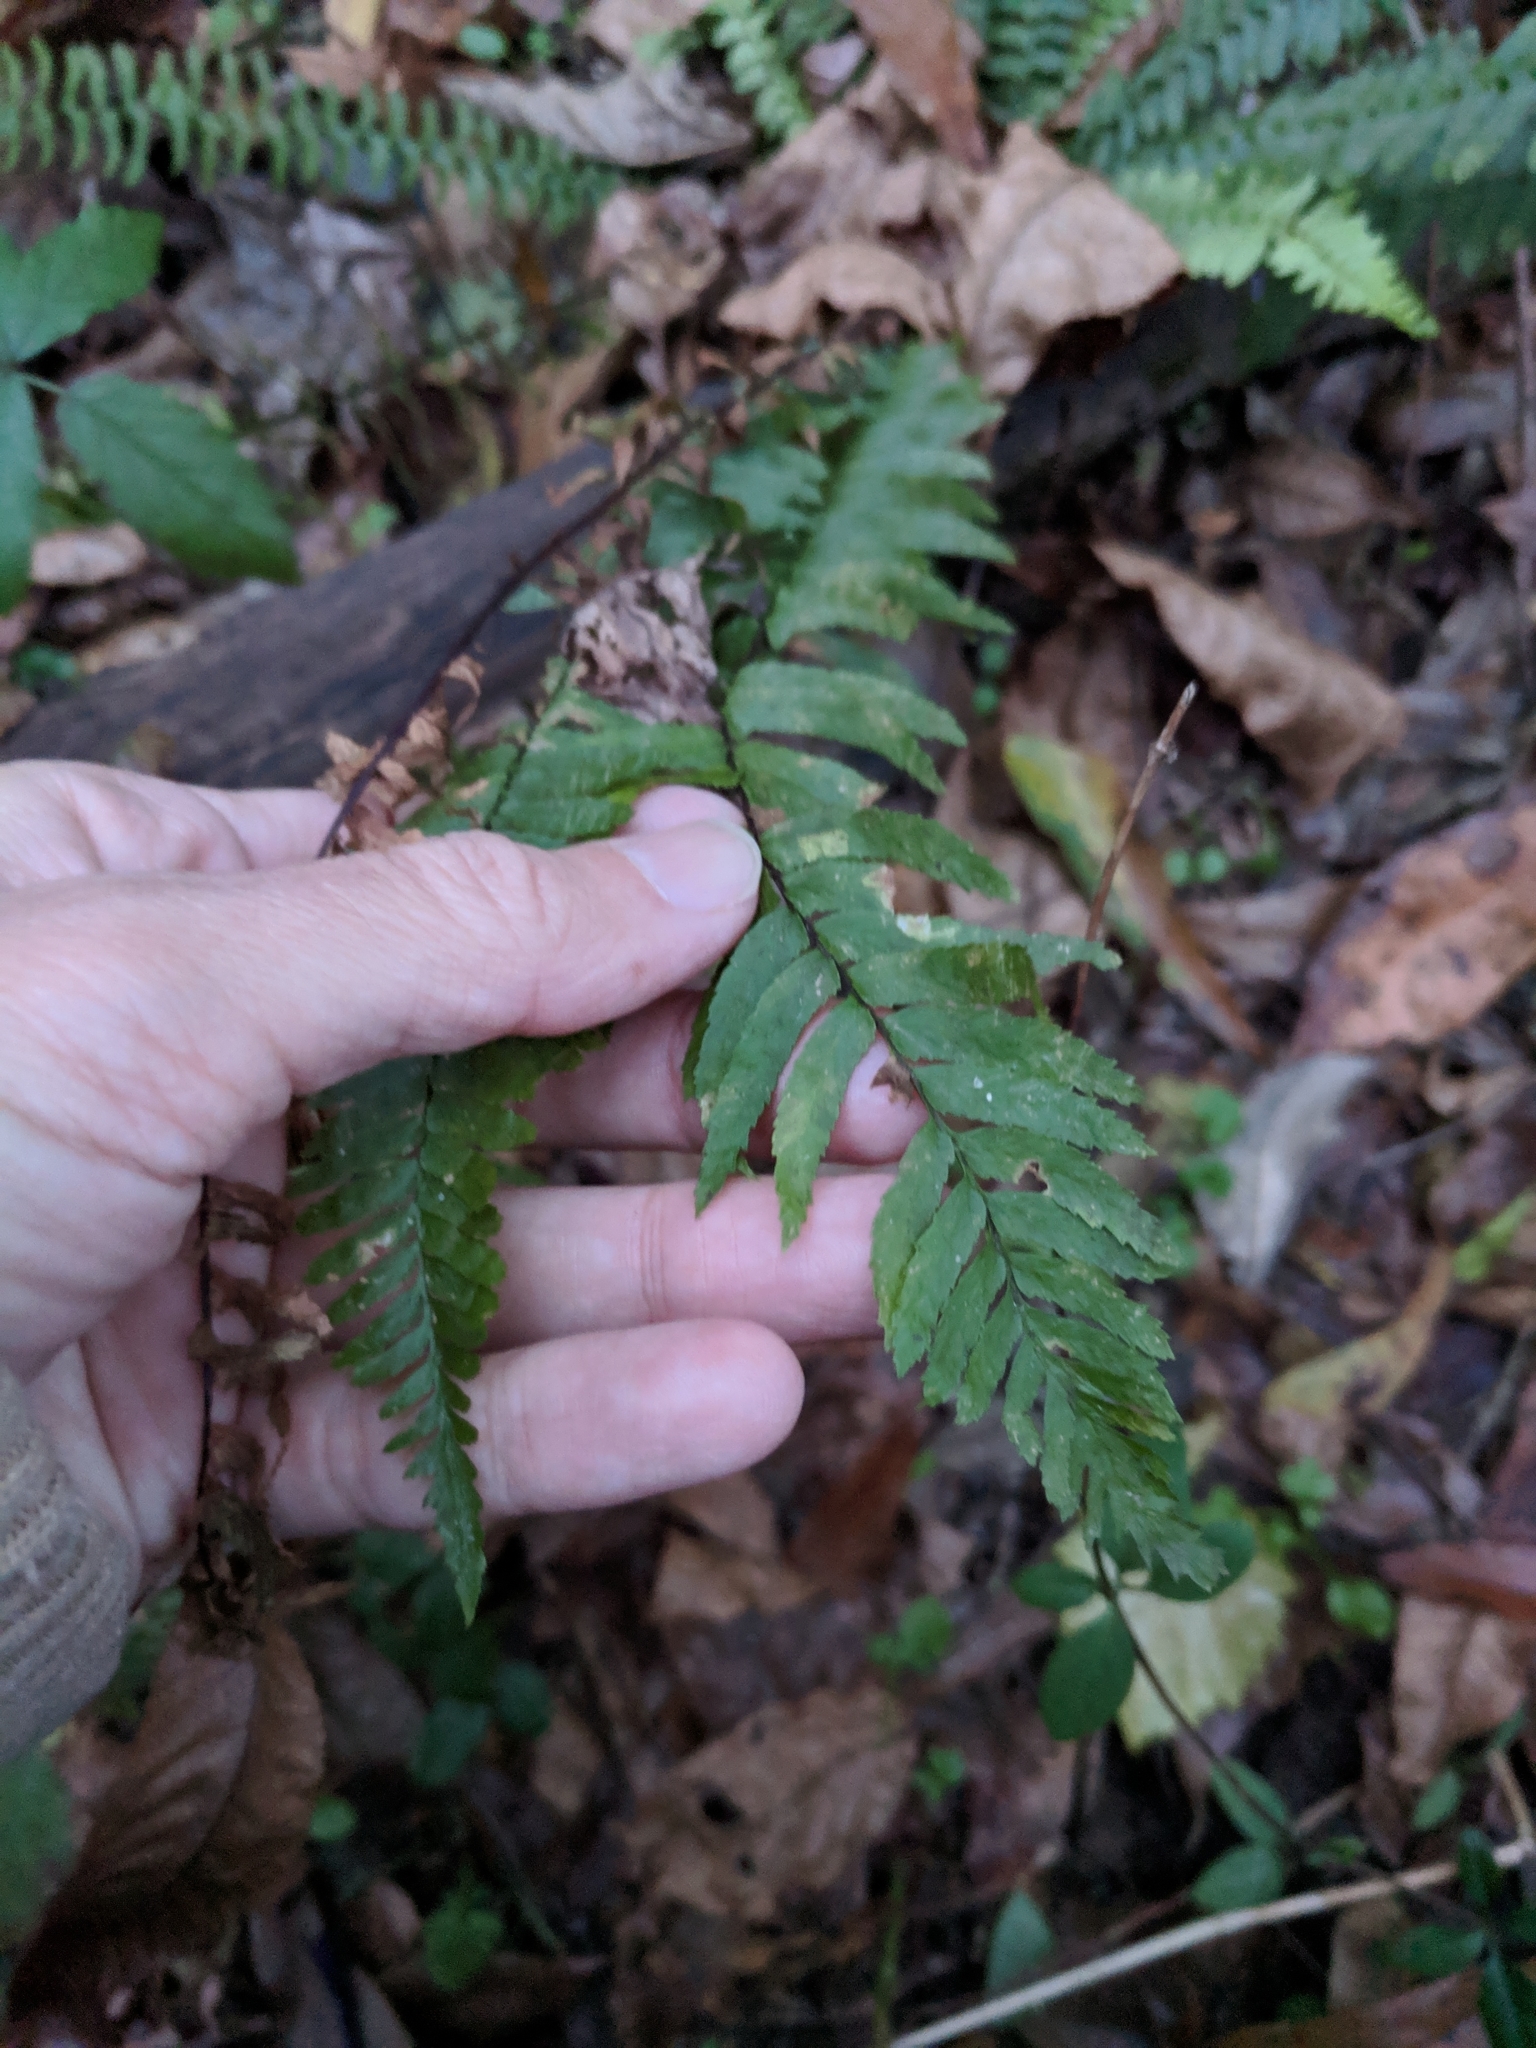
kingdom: Plantae
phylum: Tracheophyta
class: Polypodiopsida
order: Polypodiales
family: Aspleniaceae
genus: Asplenium
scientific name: Asplenium platyneuron
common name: Ebony spleenwort
